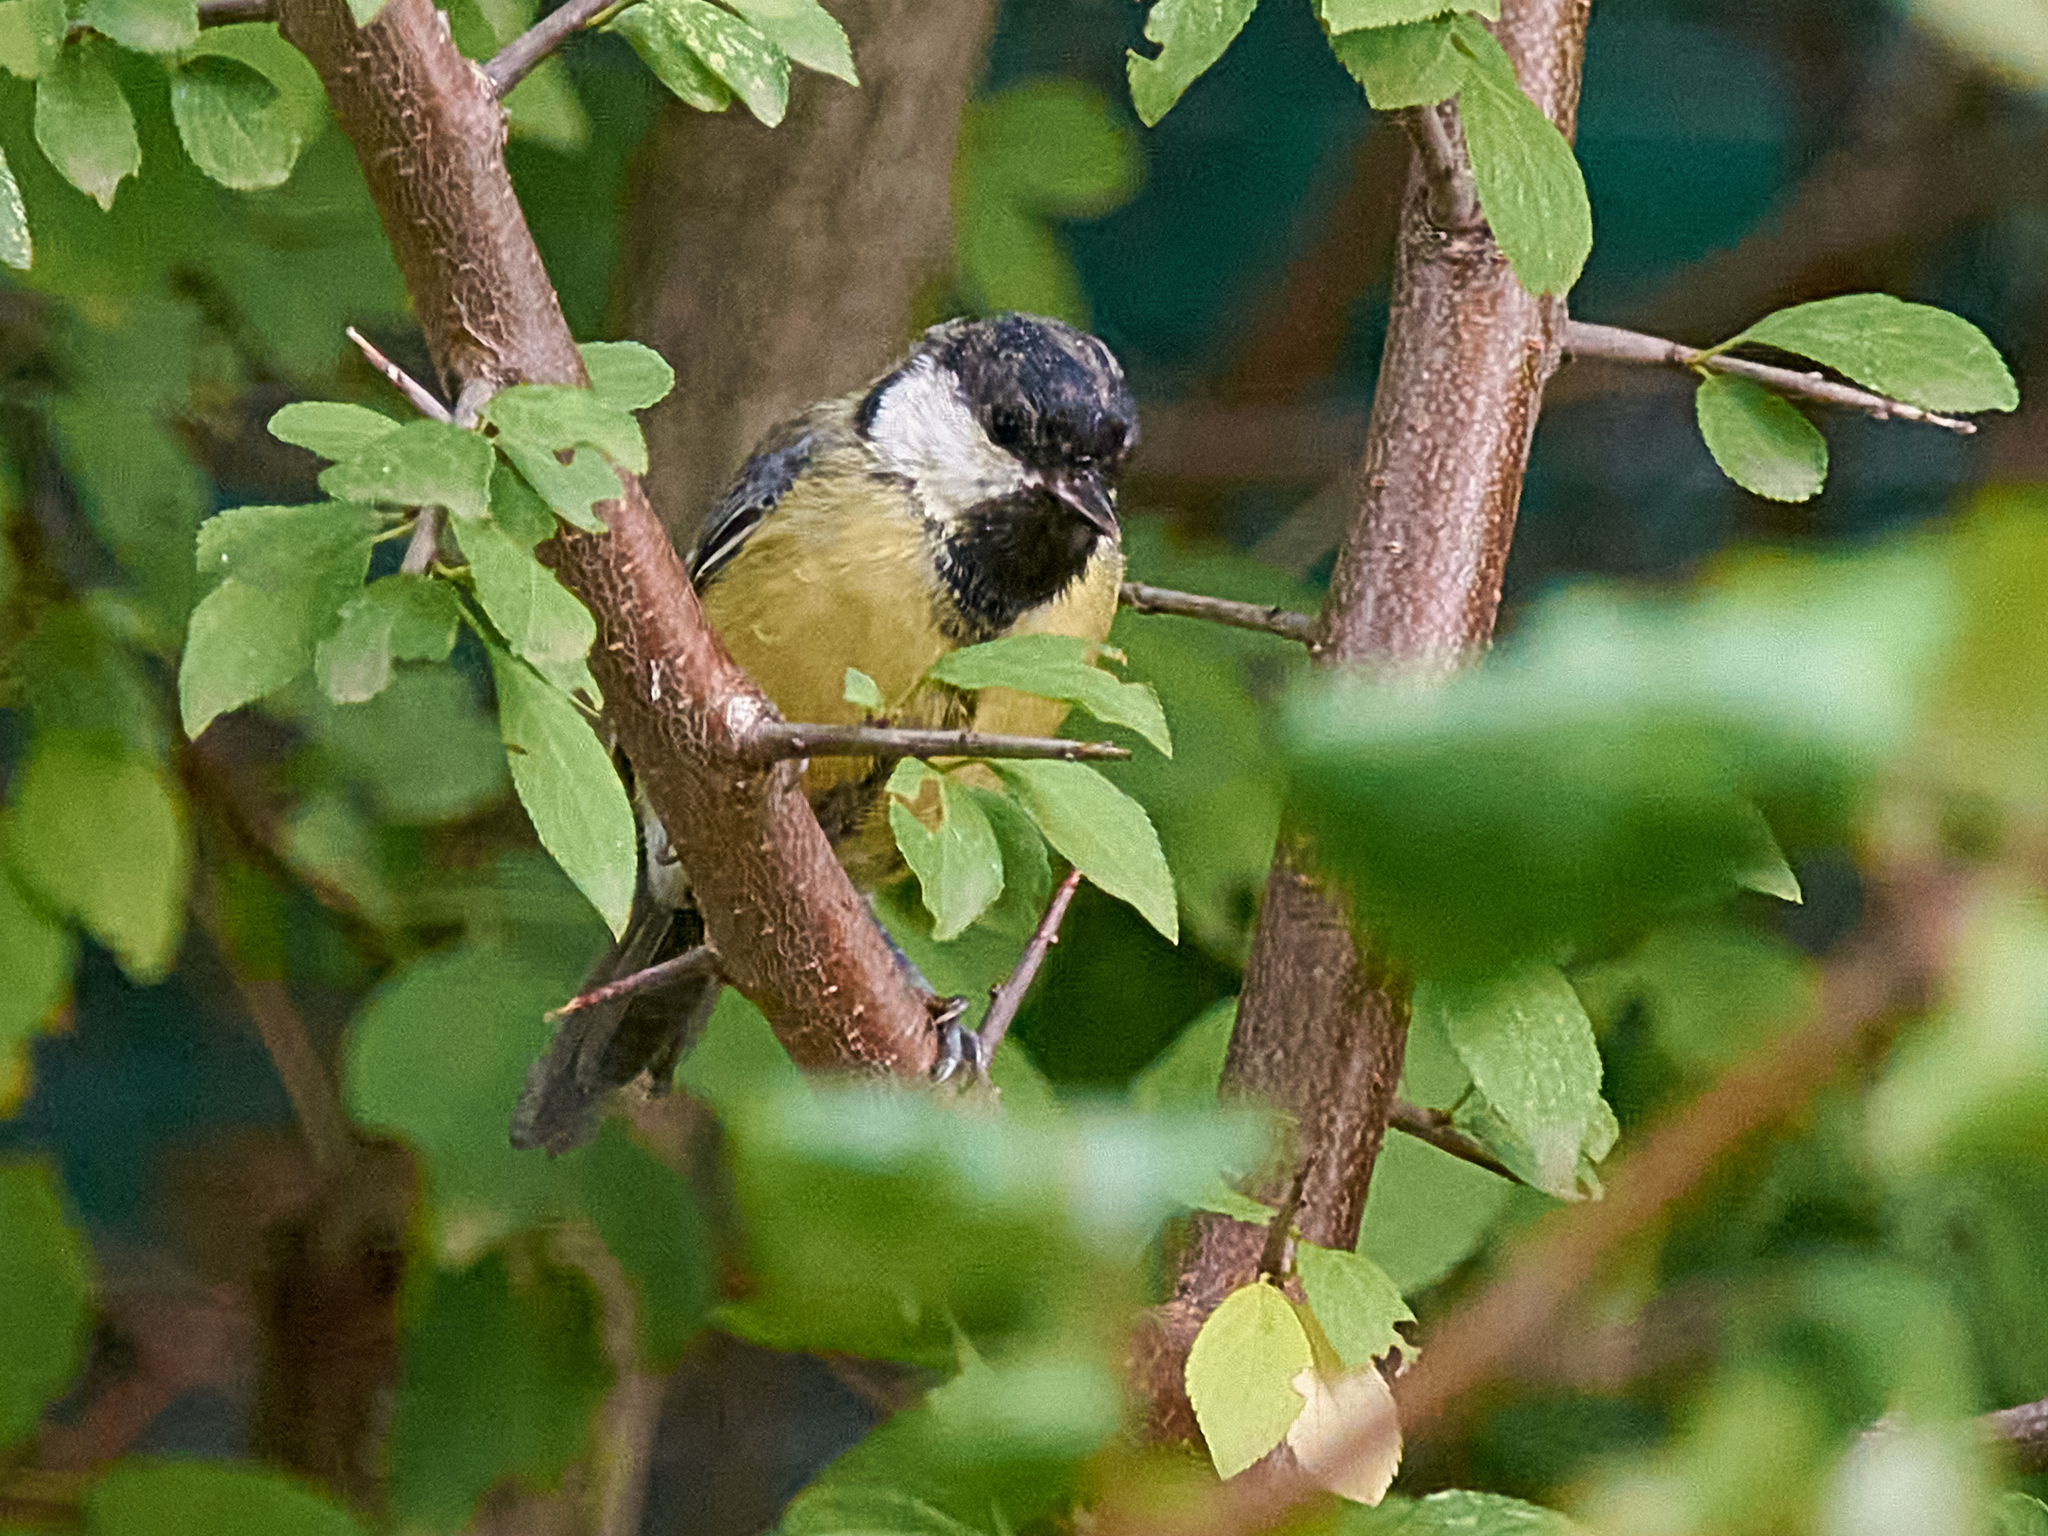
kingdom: Animalia
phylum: Chordata
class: Aves
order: Passeriformes
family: Paridae
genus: Parus
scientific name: Parus major
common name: Great tit
